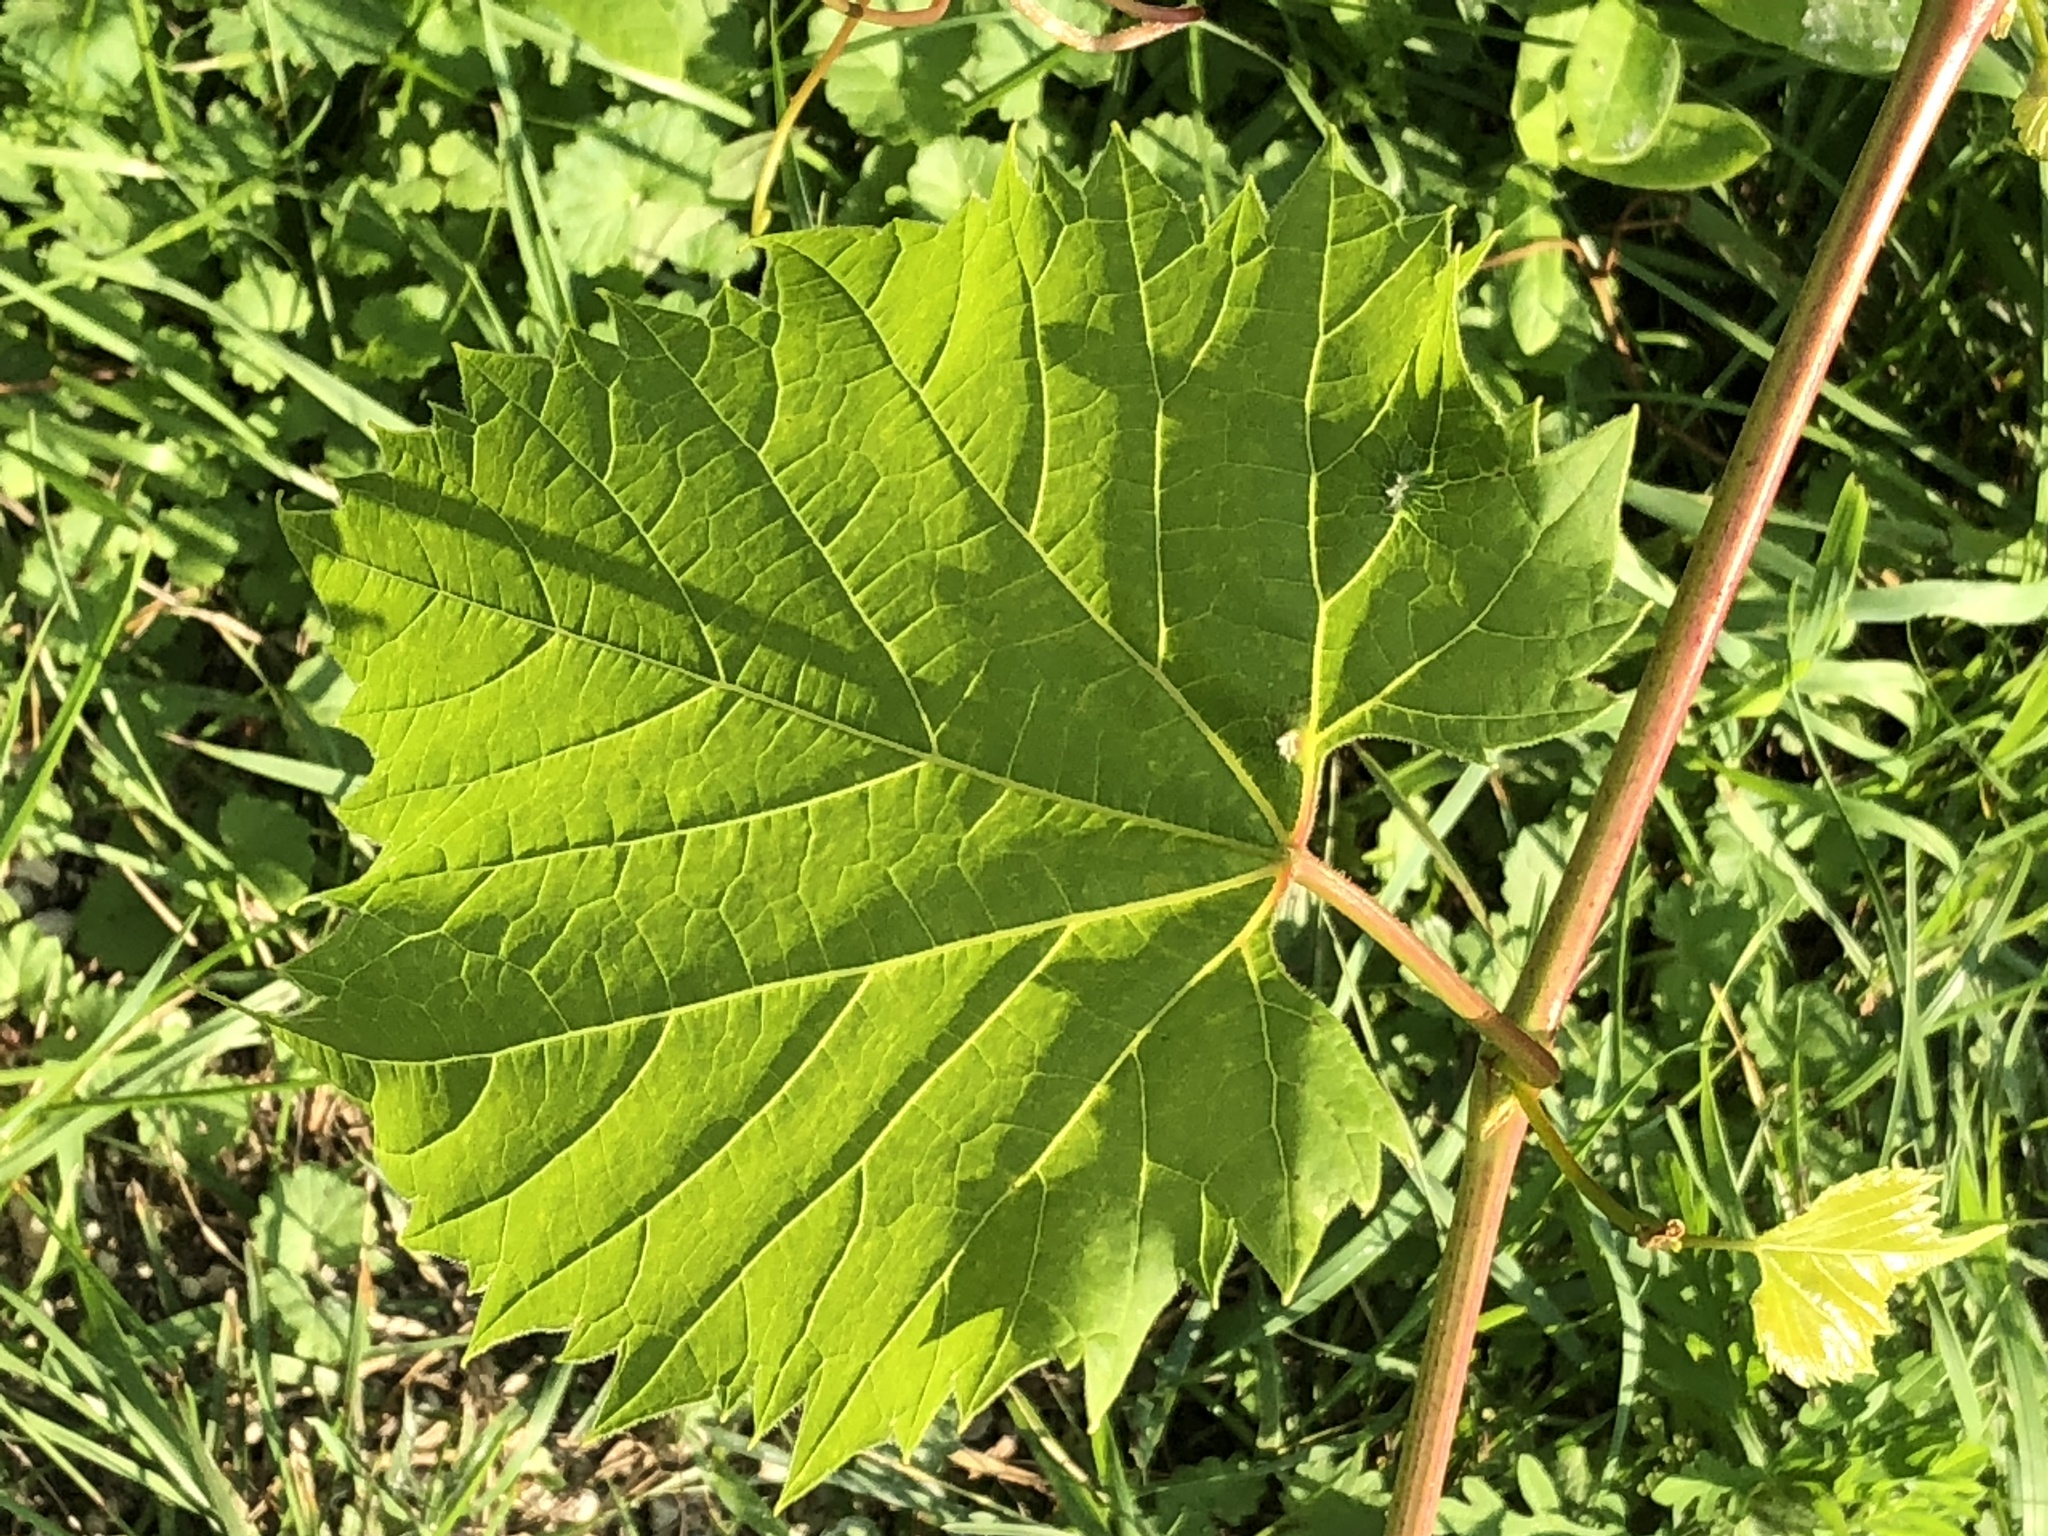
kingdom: Plantae
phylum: Tracheophyta
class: Magnoliopsida
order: Vitales
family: Vitaceae
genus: Vitis
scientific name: Vitis riparia
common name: Frost grape
